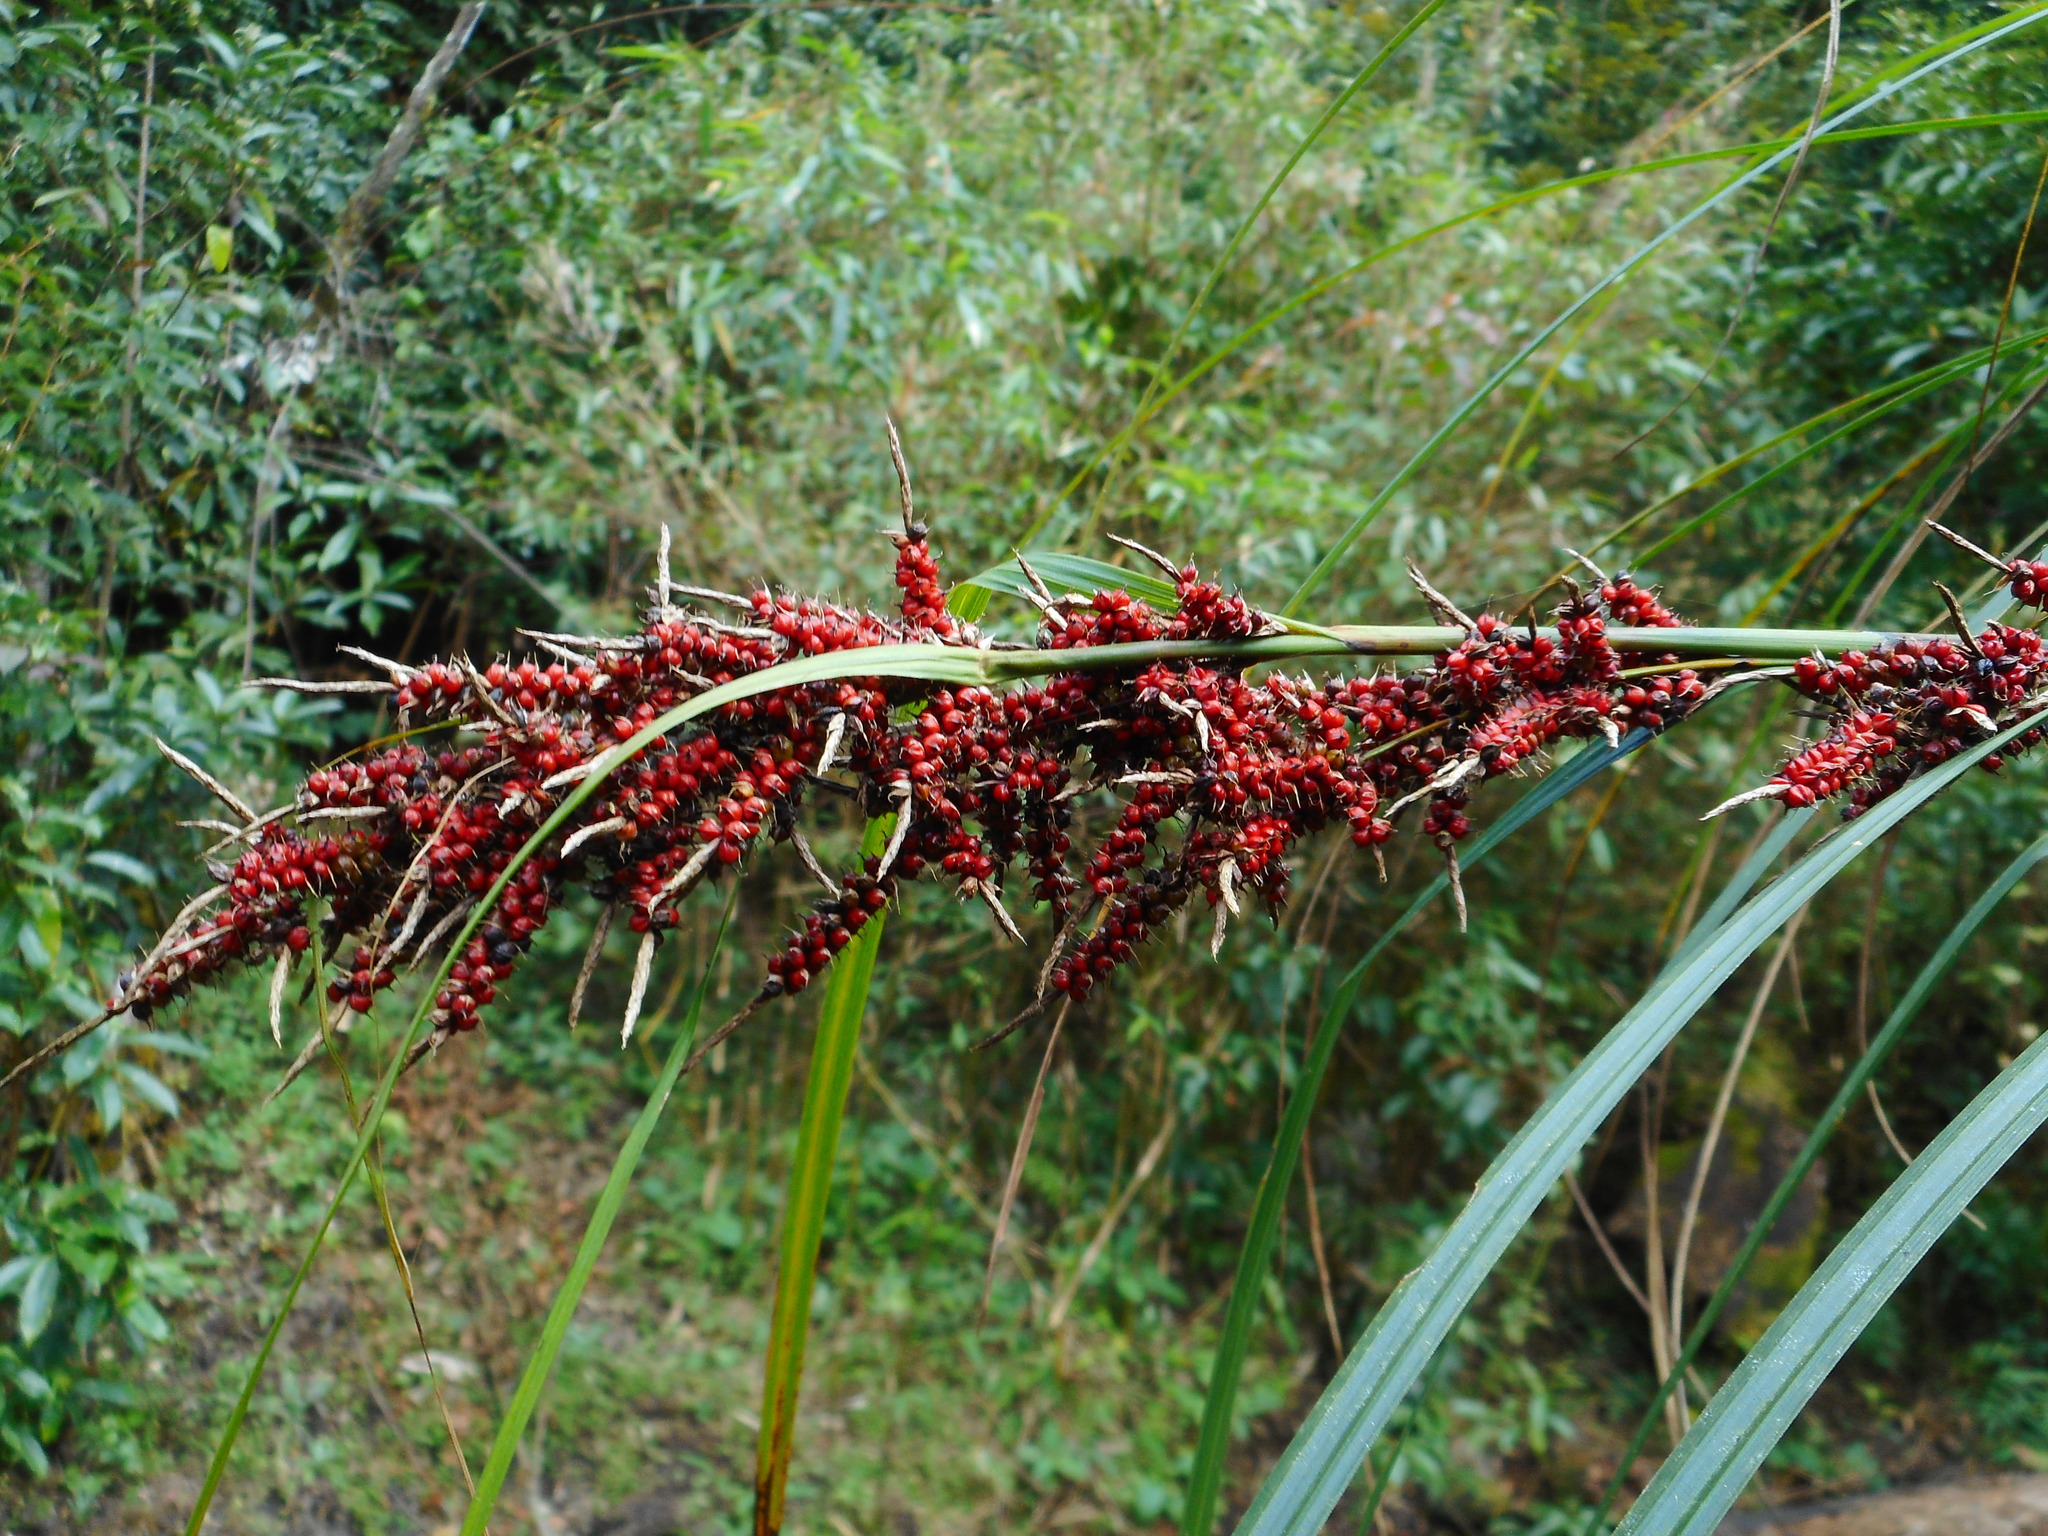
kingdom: Plantae
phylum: Tracheophyta
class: Liliopsida
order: Poales
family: Cyperaceae
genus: Carex
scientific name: Carex baccans
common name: Crimson seeded sedge
